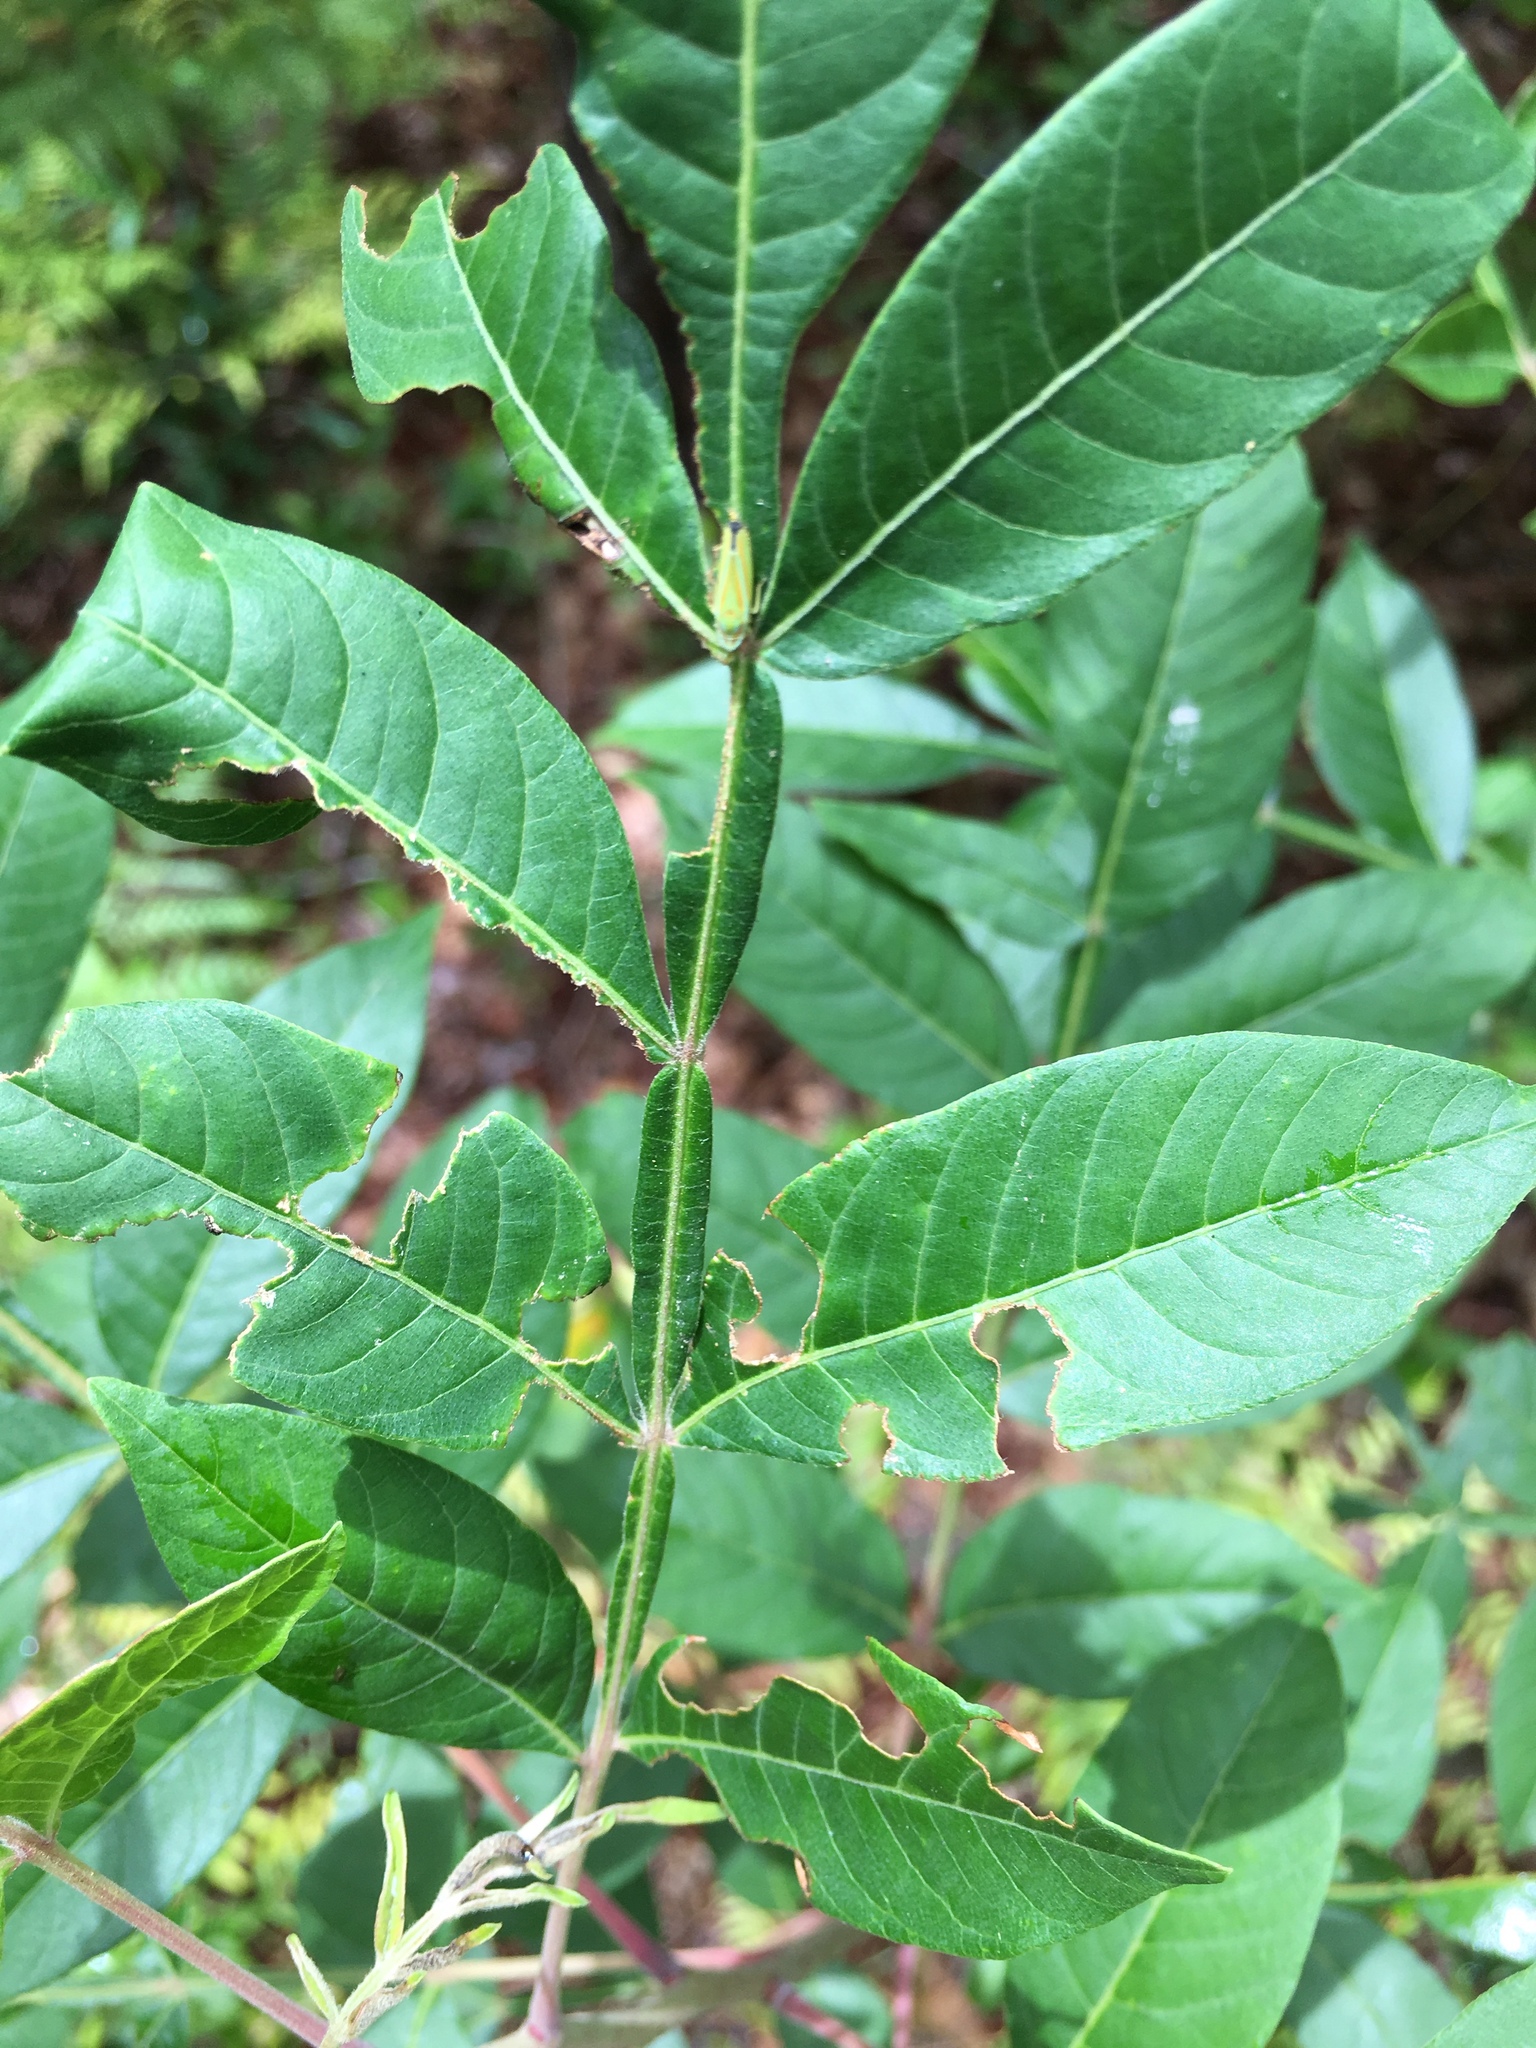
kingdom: Plantae
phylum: Tracheophyta
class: Magnoliopsida
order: Sapindales
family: Anacardiaceae
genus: Rhus
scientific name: Rhus copallina
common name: Shining sumac
